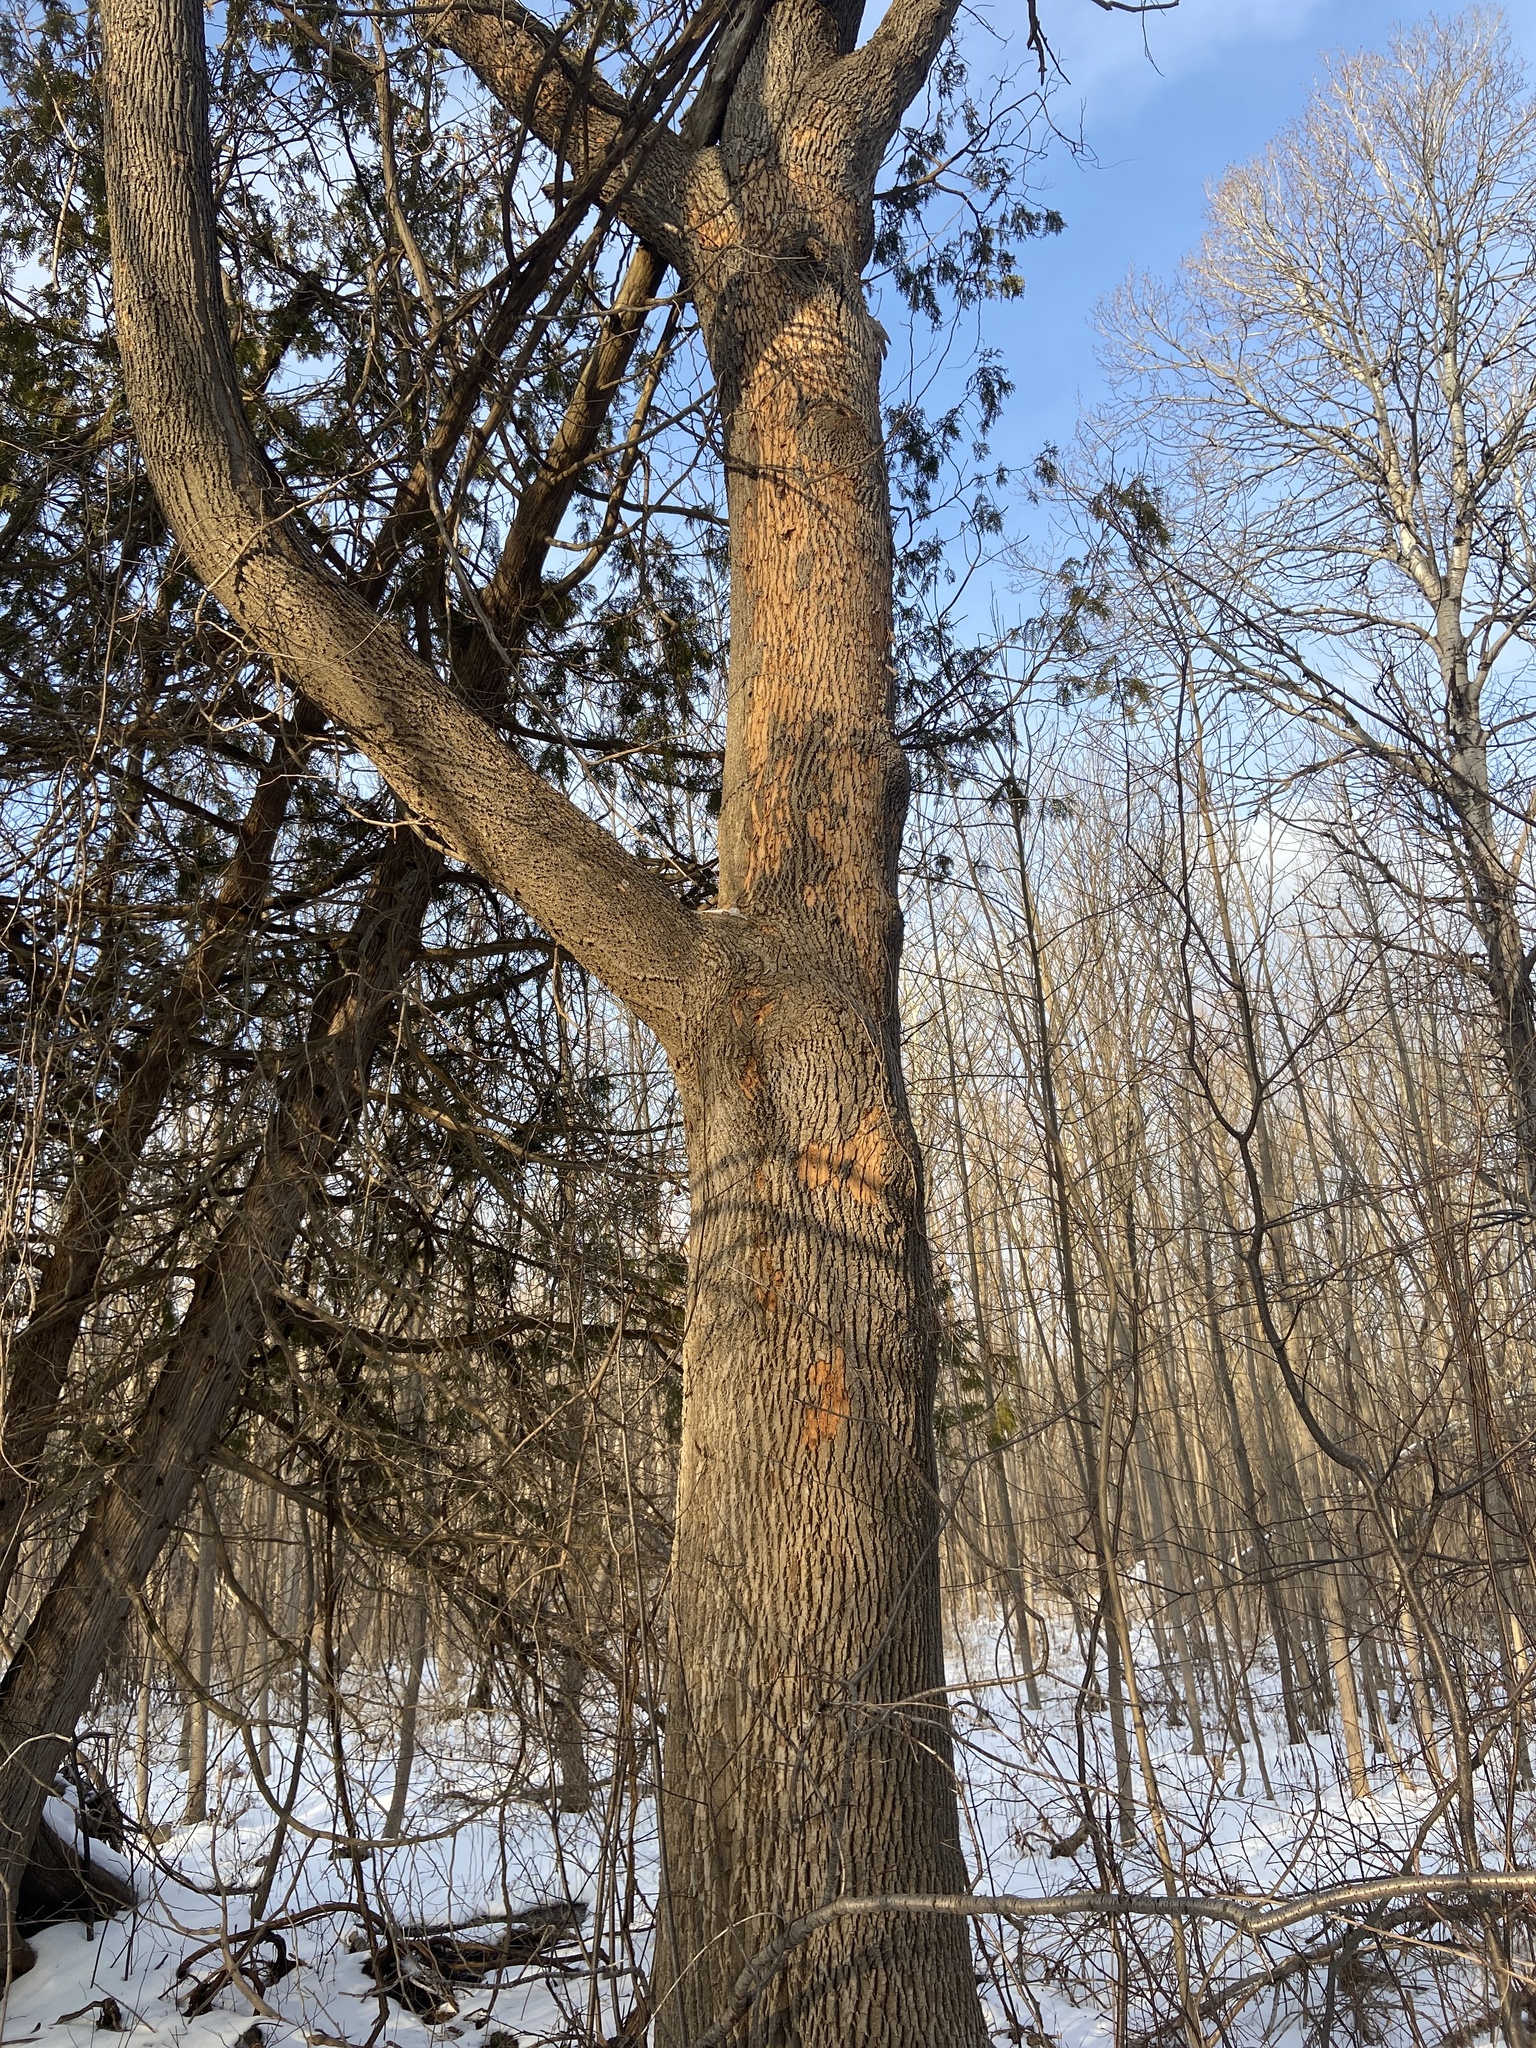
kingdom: Animalia
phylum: Arthropoda
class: Insecta
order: Coleoptera
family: Buprestidae
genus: Agrilus
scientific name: Agrilus planipennis
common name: Emerald ash borer
